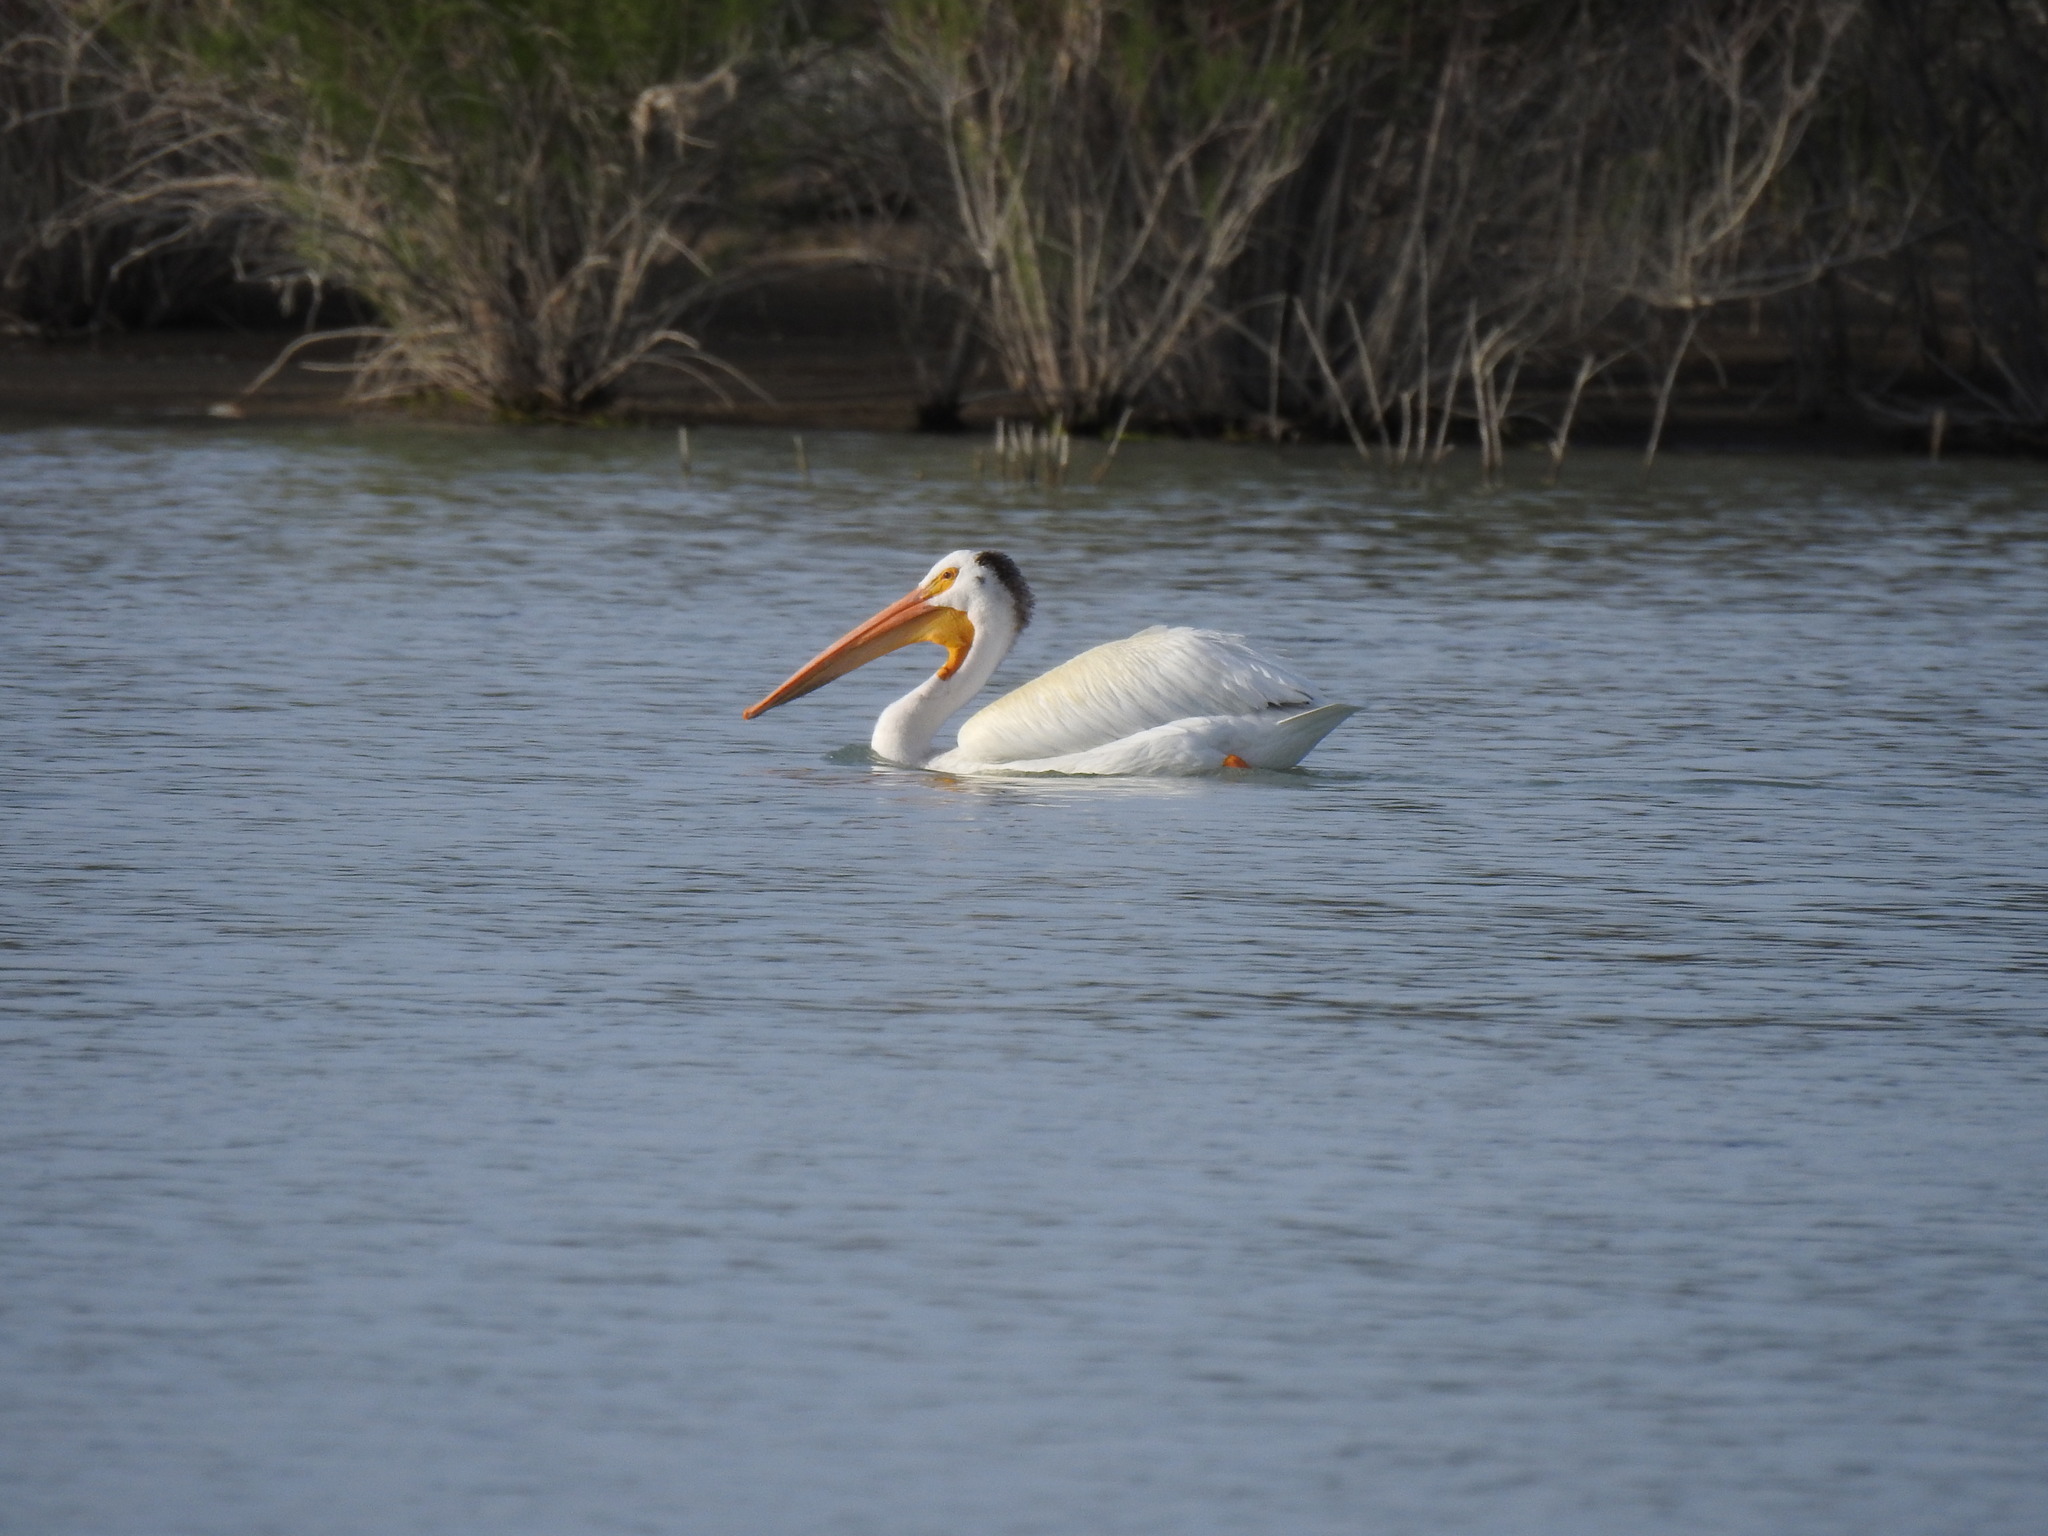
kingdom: Animalia
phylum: Chordata
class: Aves
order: Pelecaniformes
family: Pelecanidae
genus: Pelecanus
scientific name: Pelecanus erythrorhynchos
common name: American white pelican
